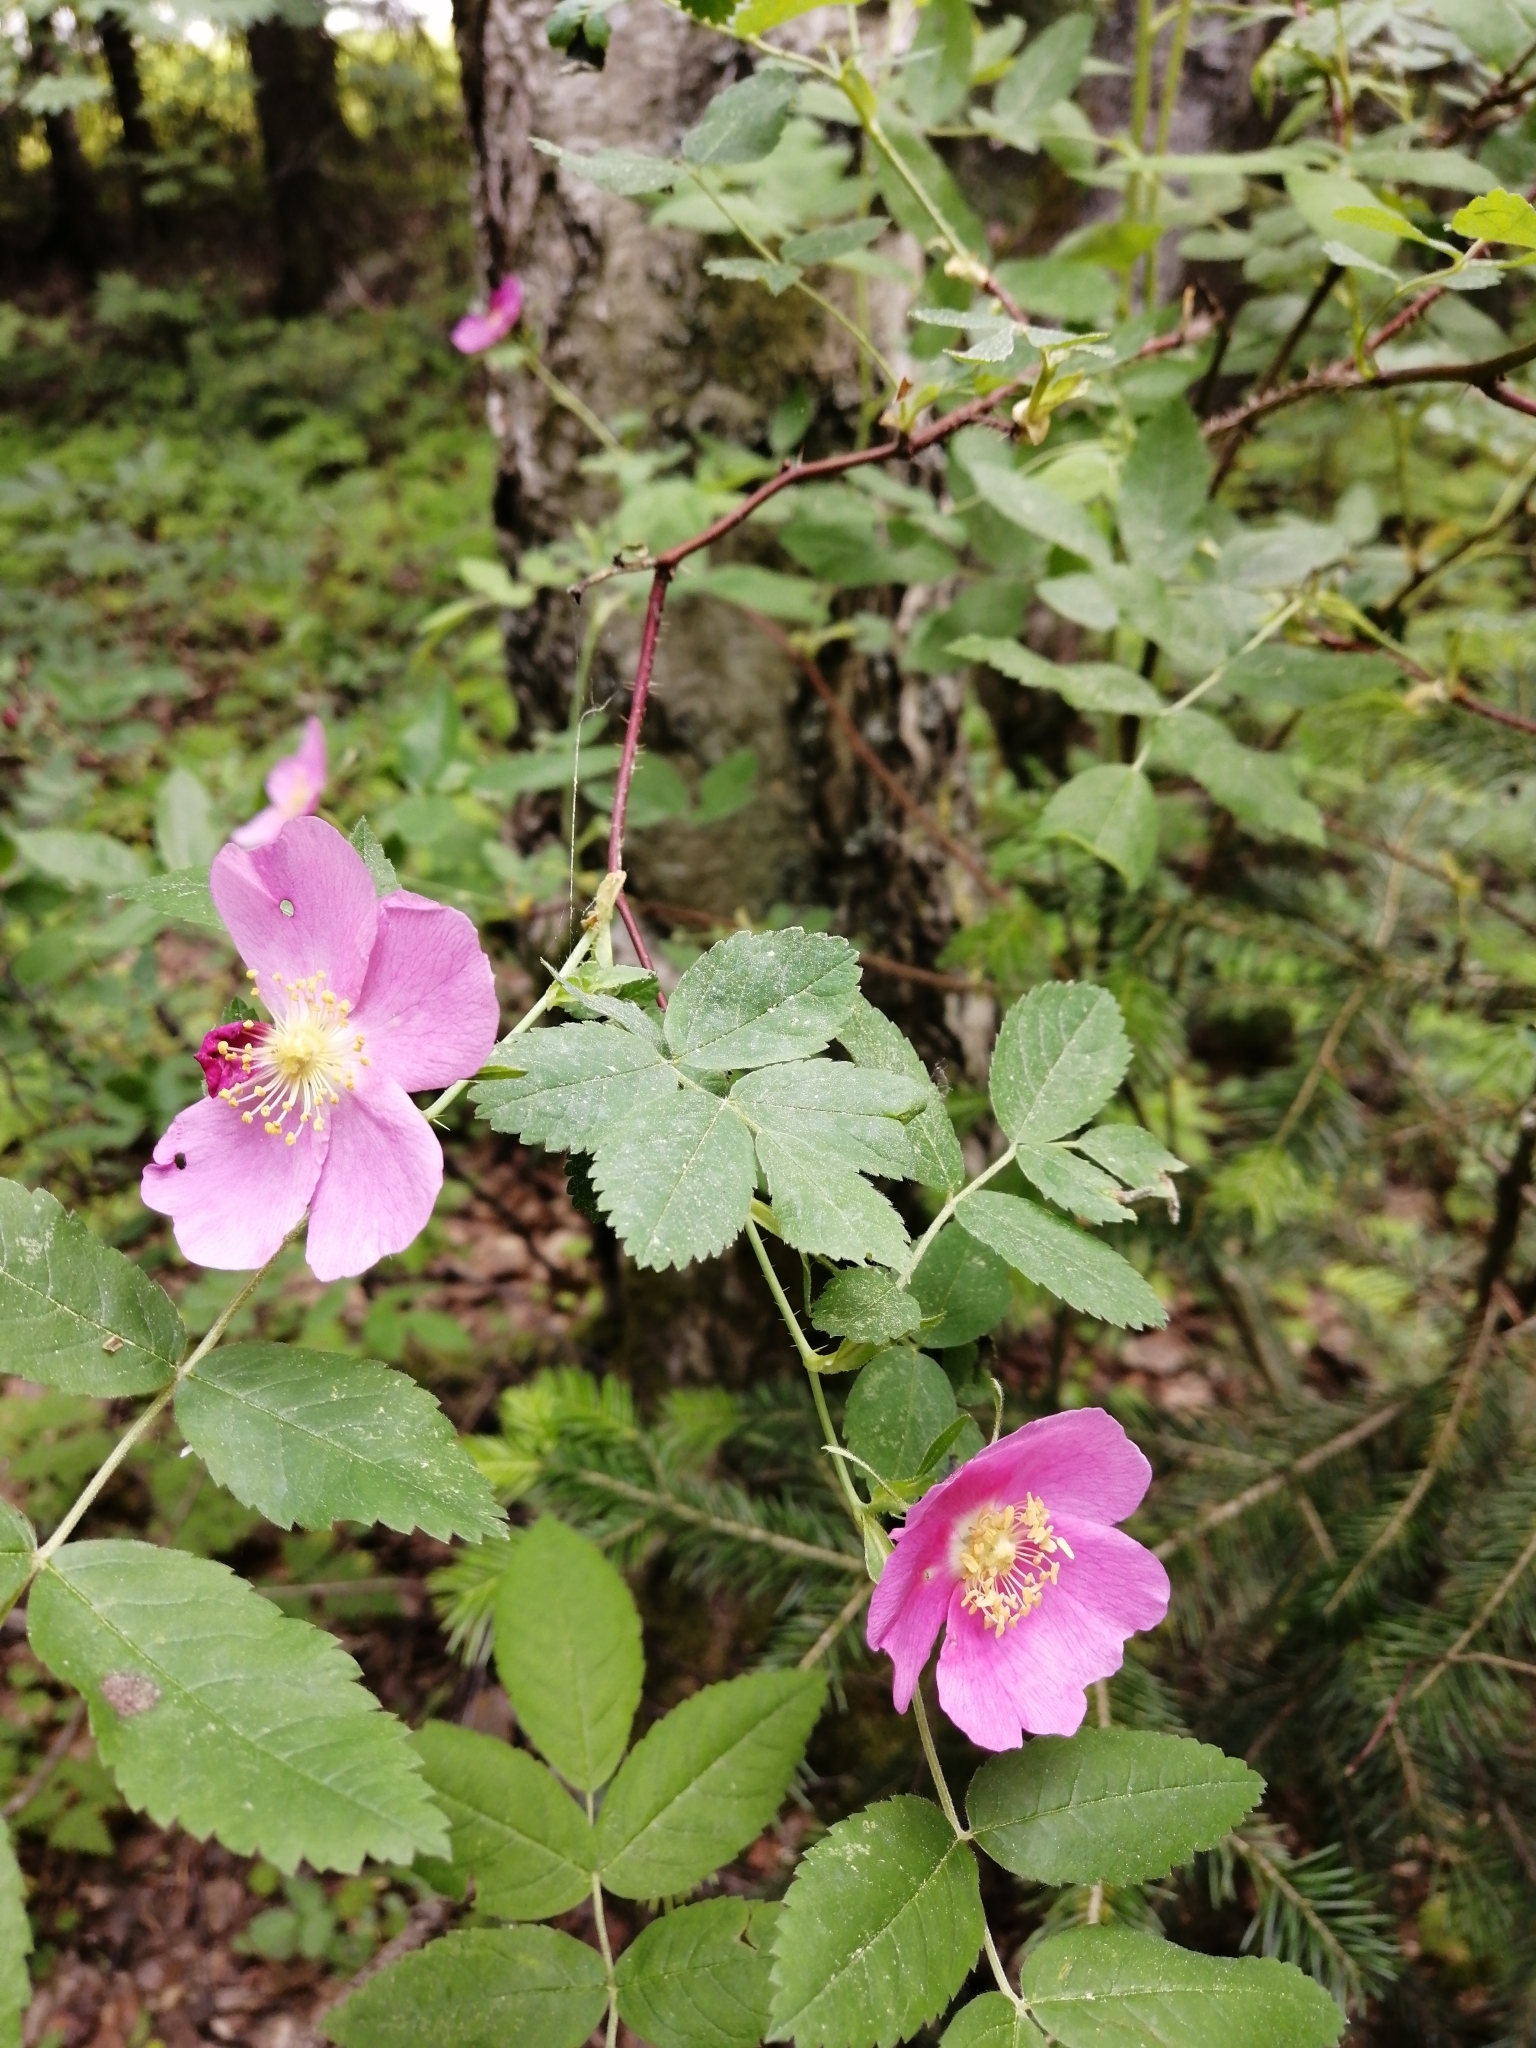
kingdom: Plantae
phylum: Tracheophyta
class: Magnoliopsida
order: Rosales
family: Rosaceae
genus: Rosa
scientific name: Rosa acicularis
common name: Prickly rose
